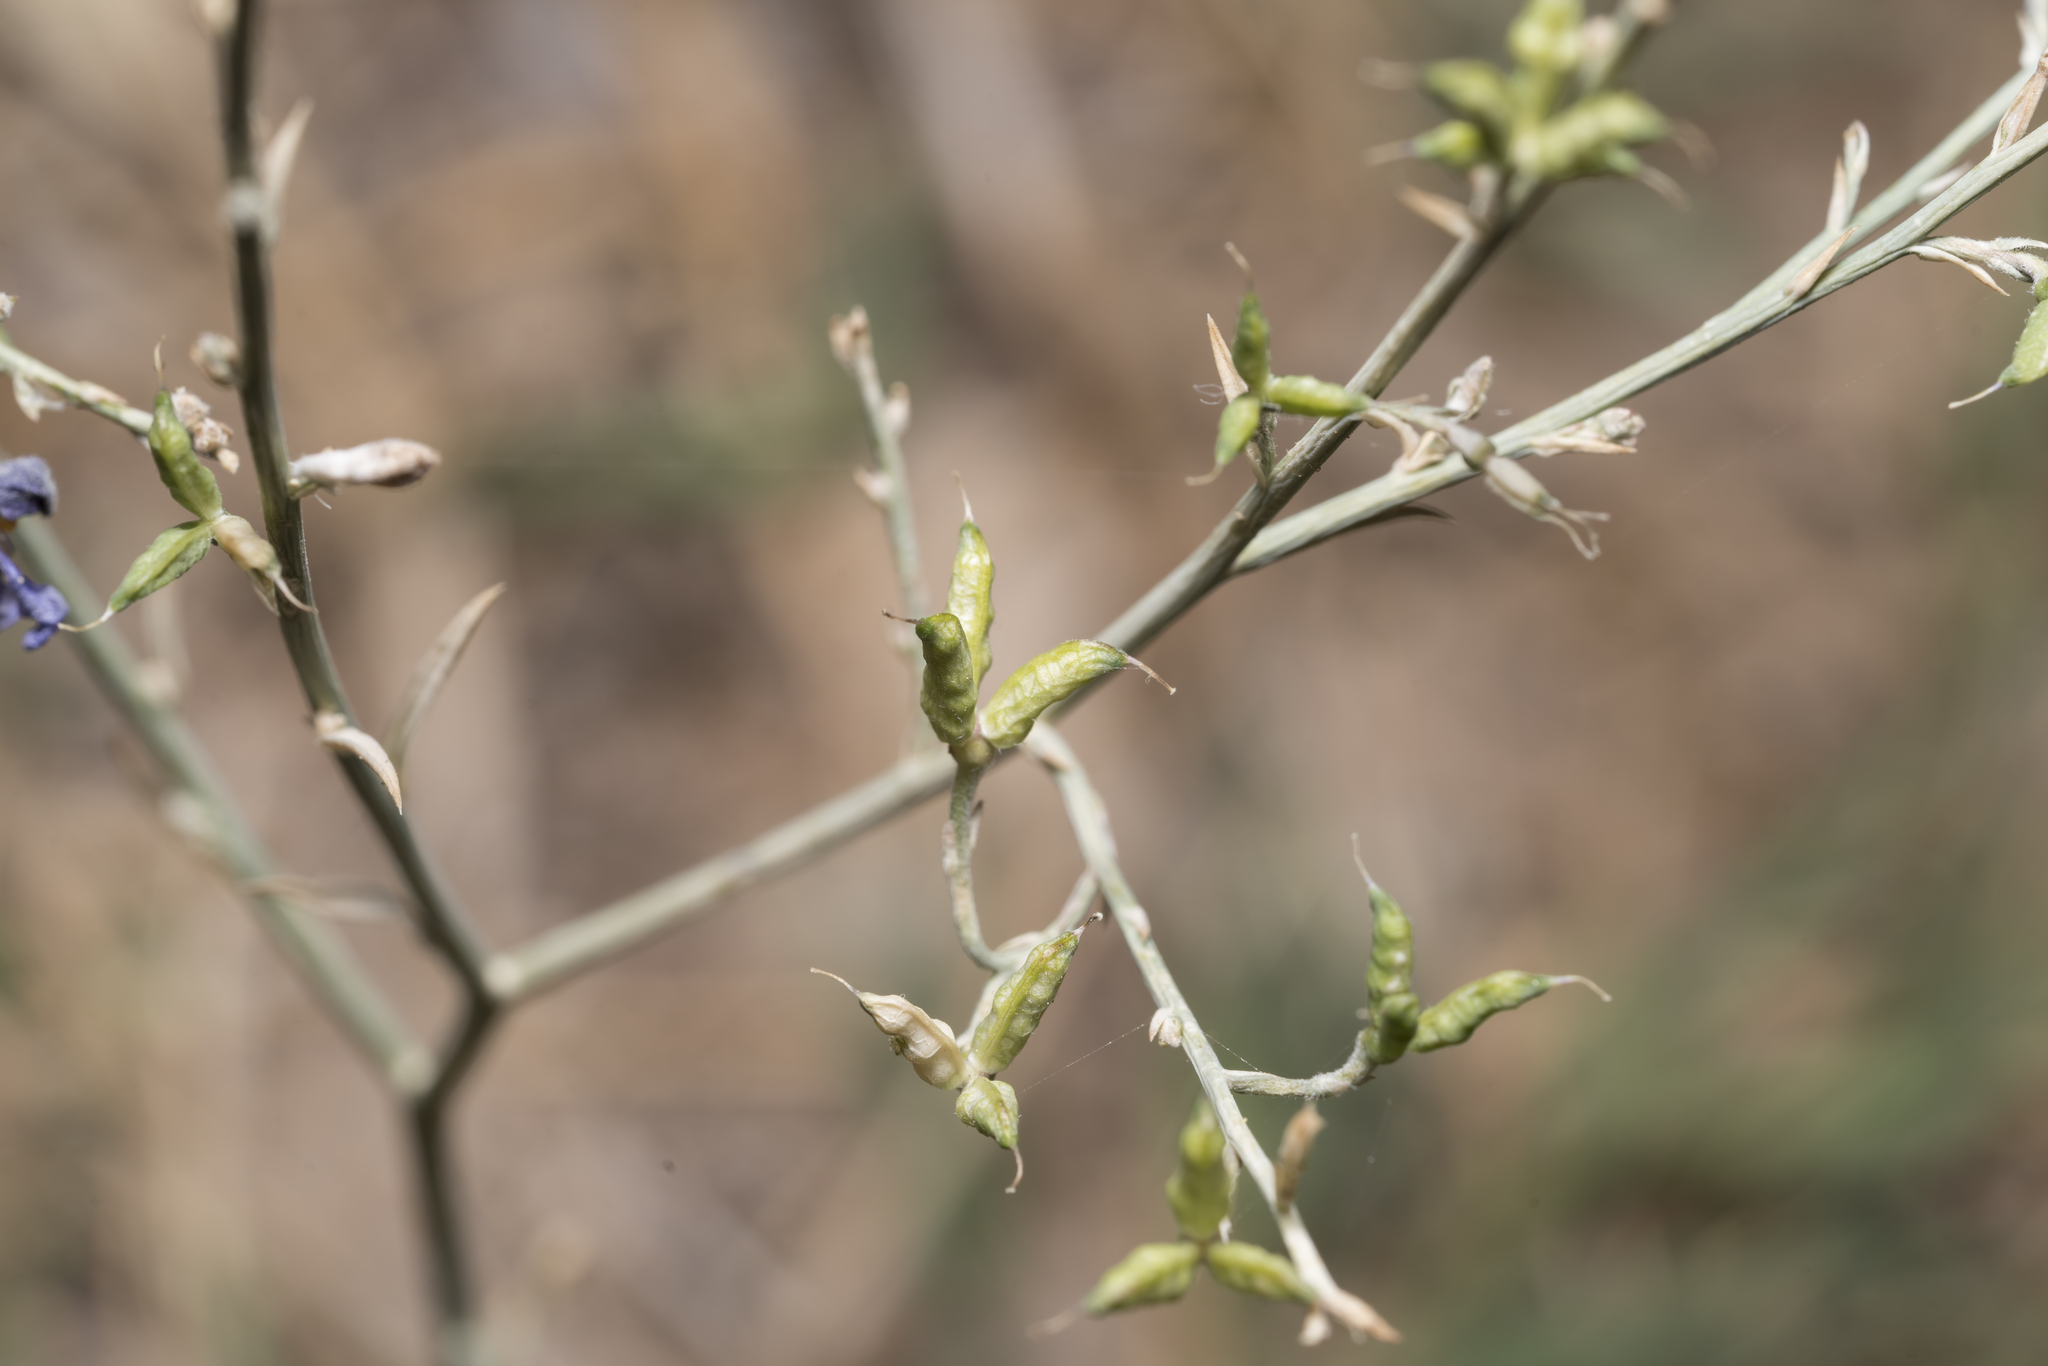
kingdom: Plantae
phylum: Tracheophyta
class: Magnoliopsida
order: Ranunculales
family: Ranunculaceae
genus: Delphinium
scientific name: Delphinium peregrinum
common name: Violet larkspur
